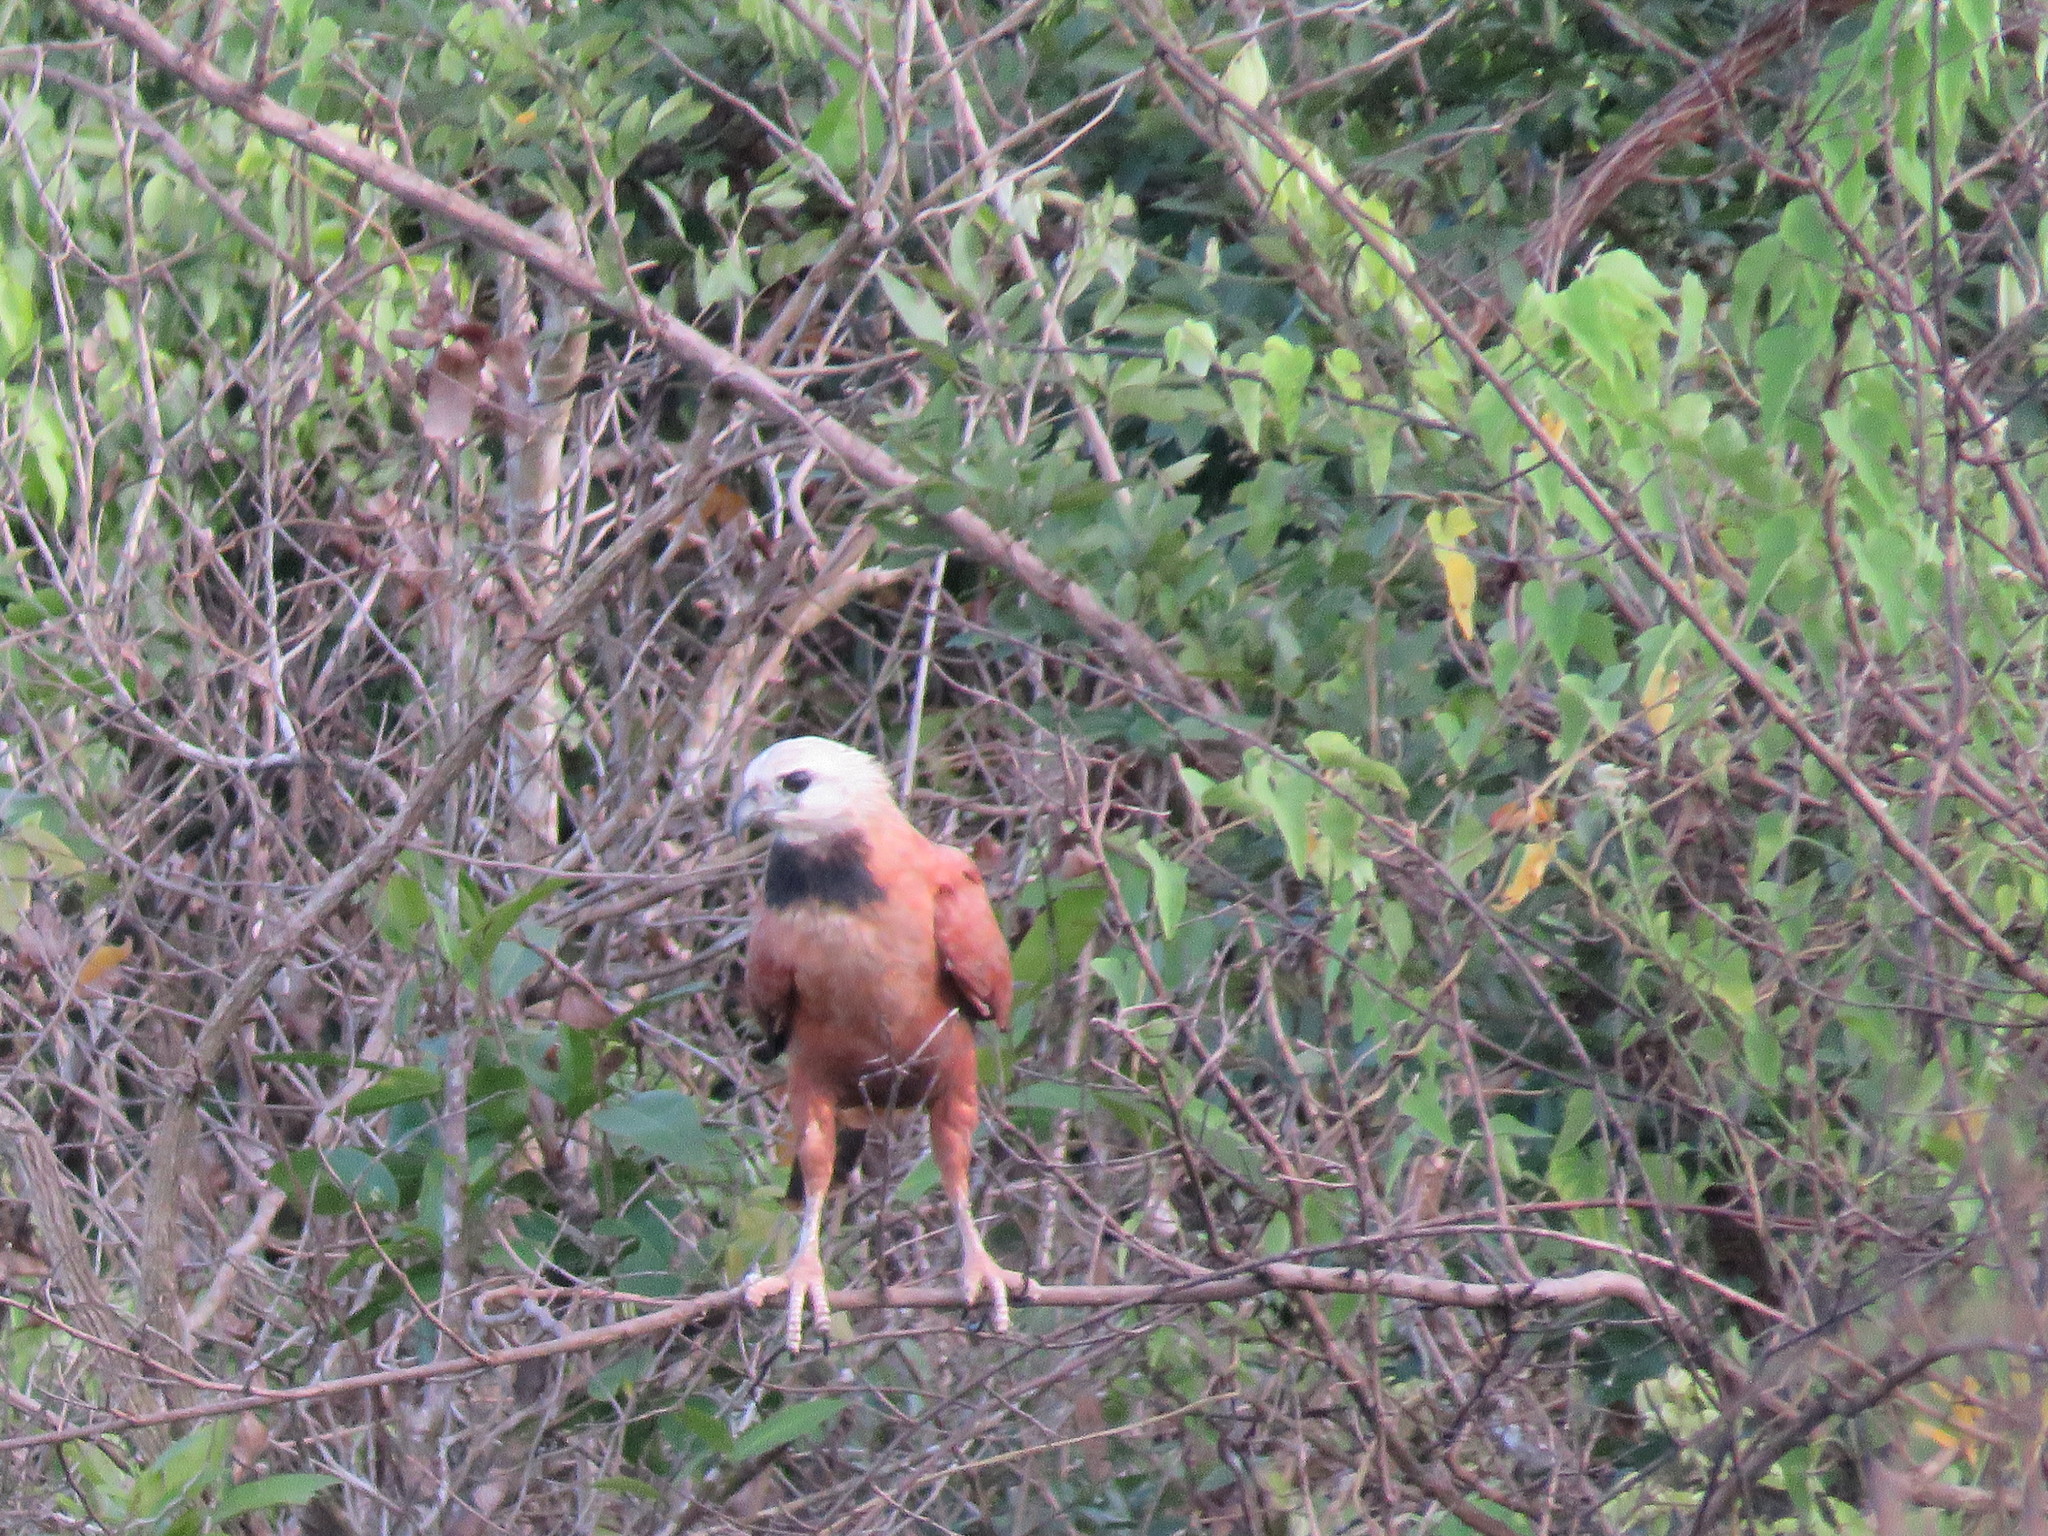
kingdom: Animalia
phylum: Chordata
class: Aves
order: Accipitriformes
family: Accipitridae
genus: Busarellus
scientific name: Busarellus nigricollis
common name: Black-collared hawk
